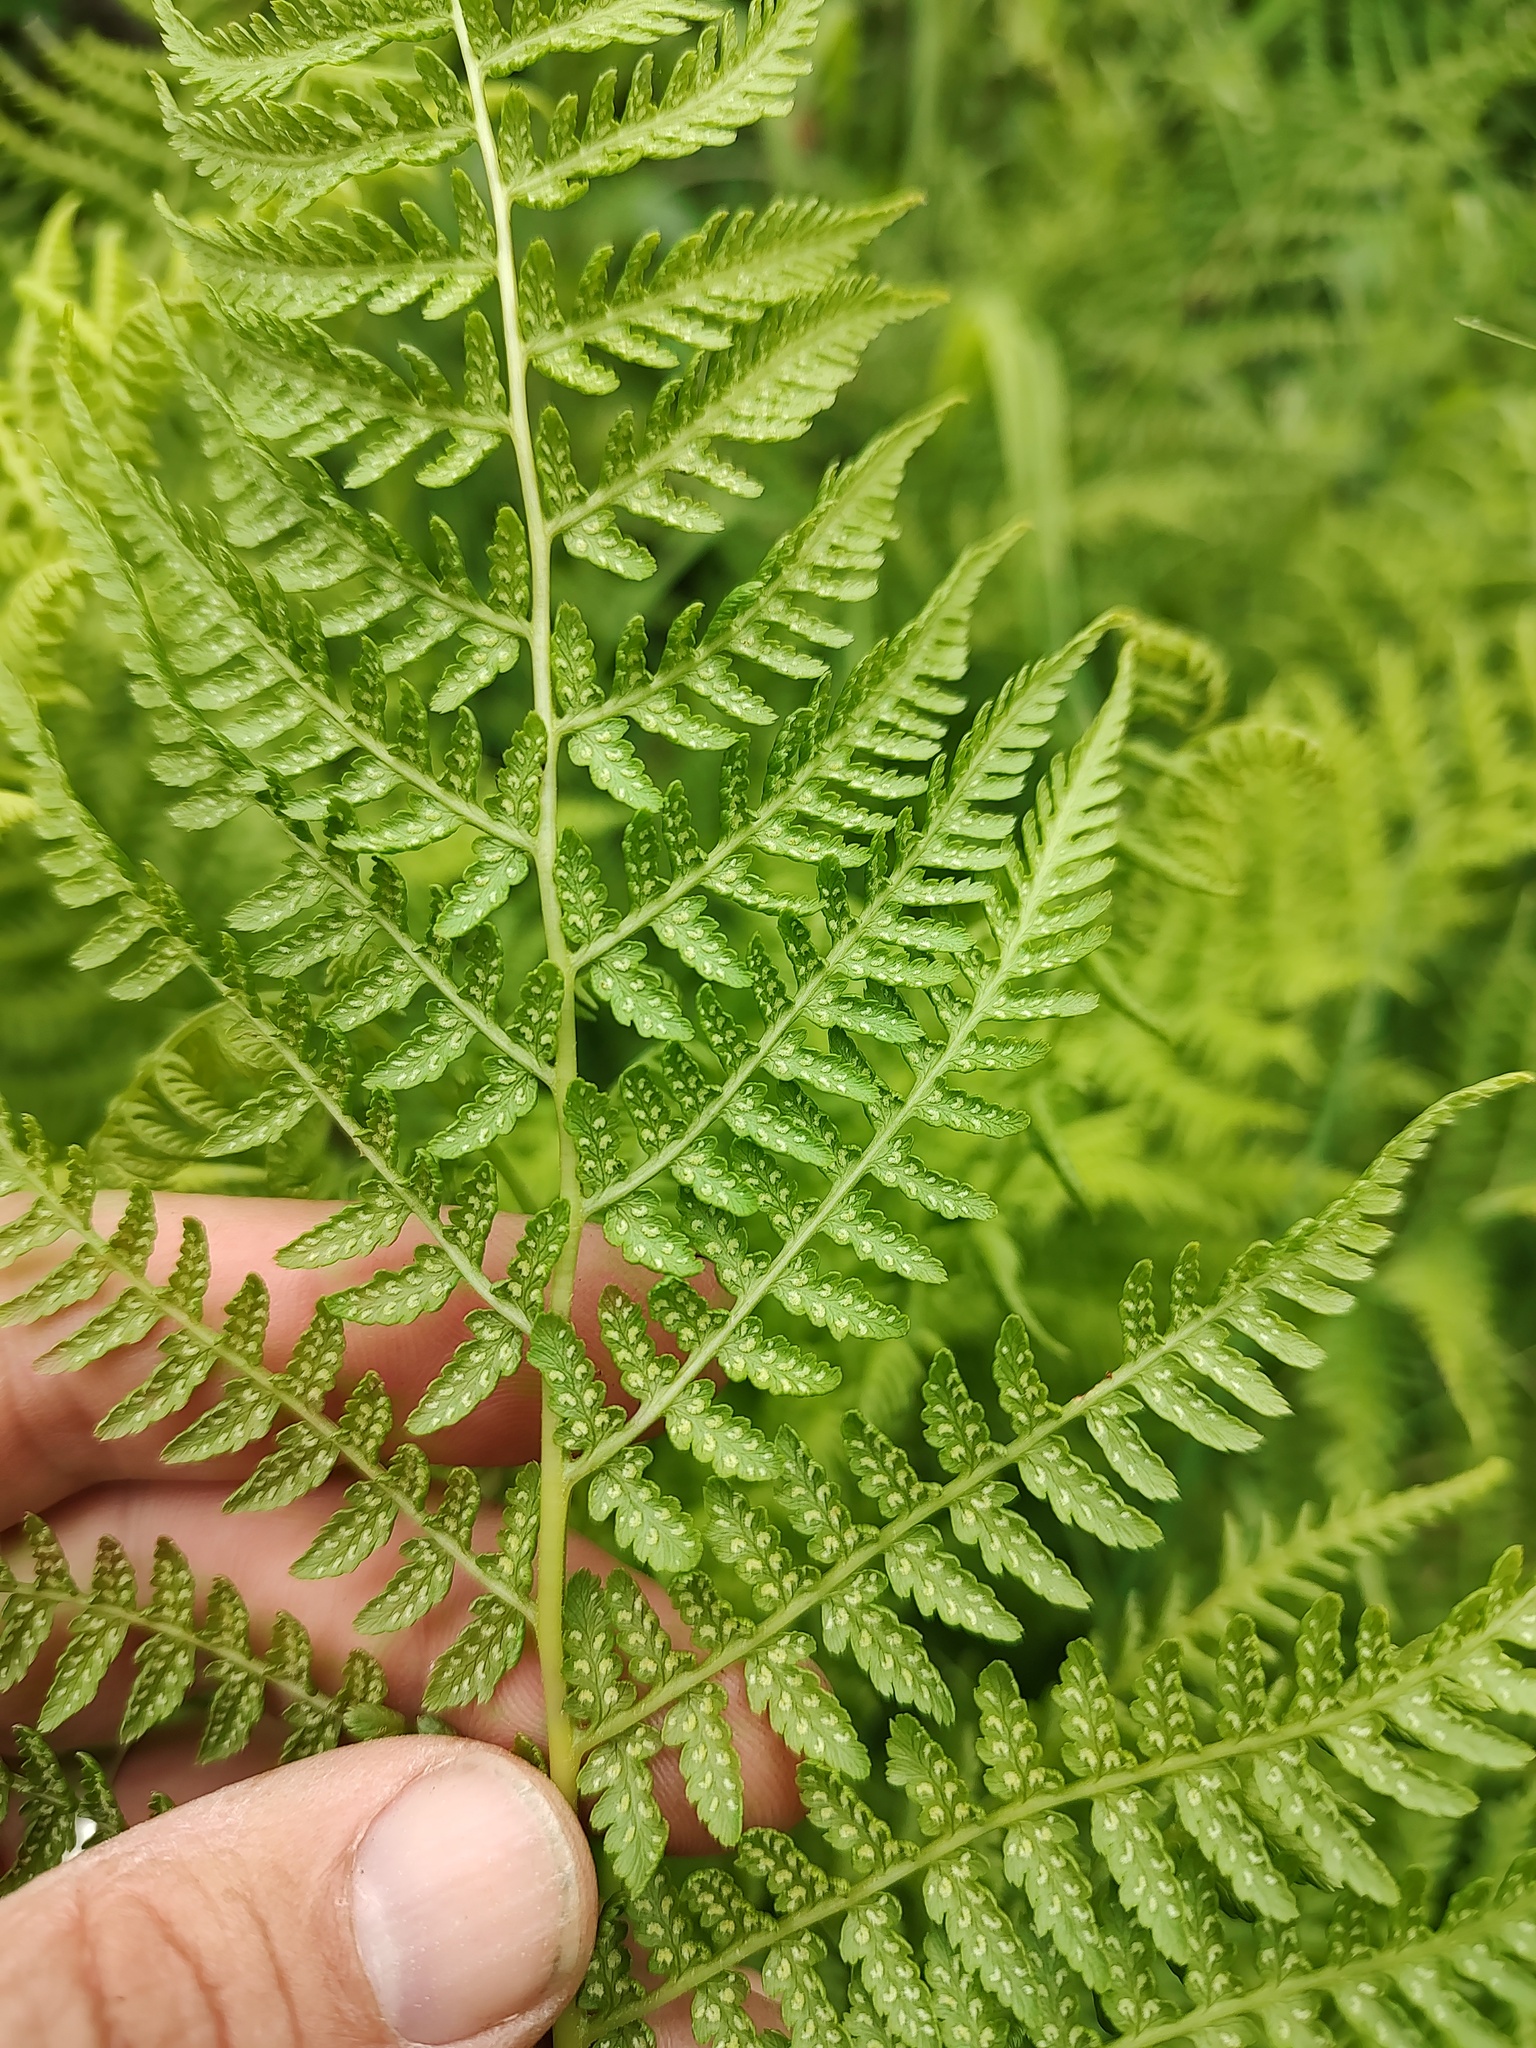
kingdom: Plantae
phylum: Tracheophyta
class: Polypodiopsida
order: Polypodiales
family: Athyriaceae
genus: Athyrium
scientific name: Athyrium cyclosorum
